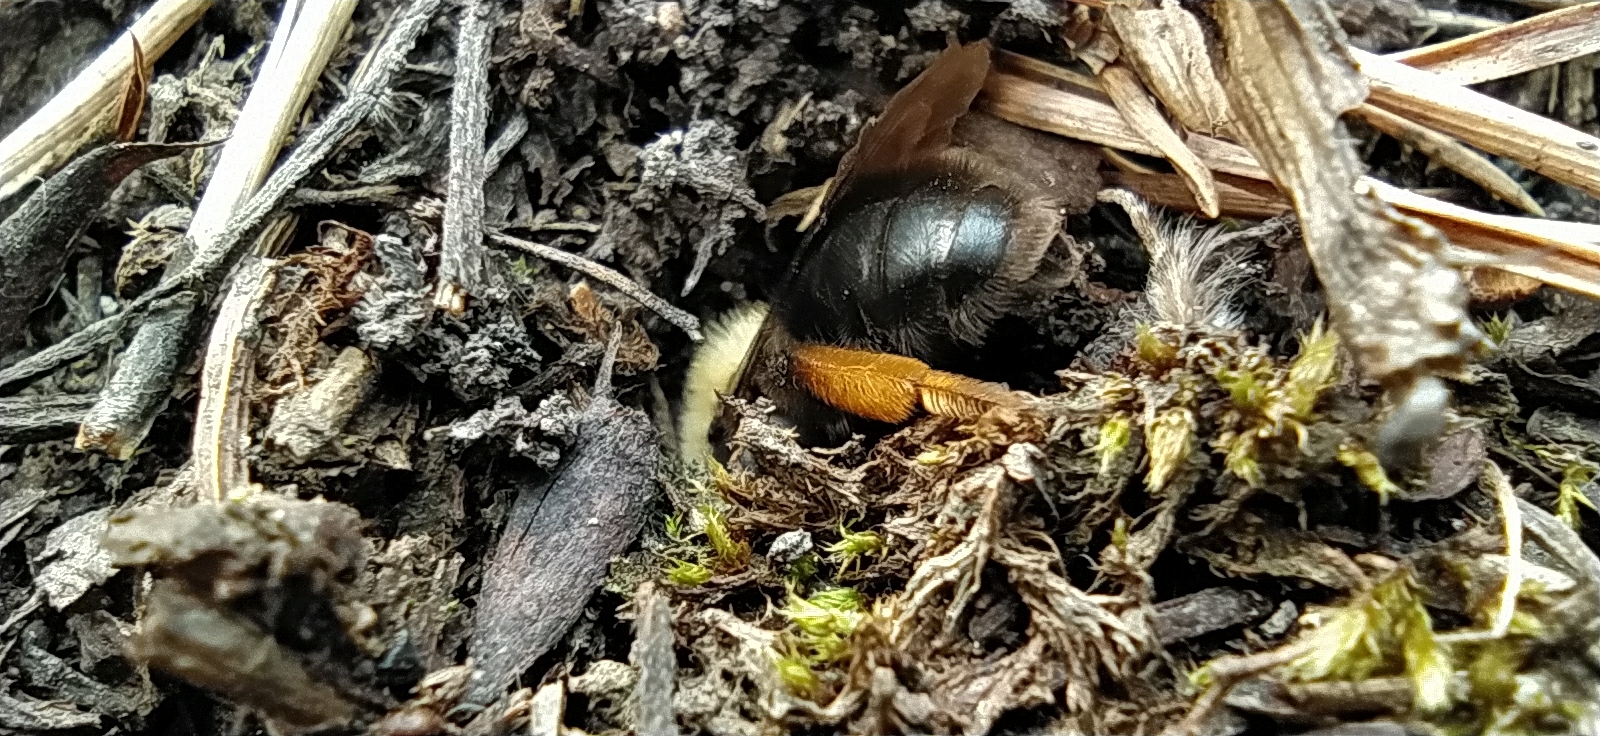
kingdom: Animalia
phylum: Arthropoda
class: Insecta
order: Hymenoptera
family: Andrenidae
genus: Andrena
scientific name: Andrena clarkella
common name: Clarke's mining bee
